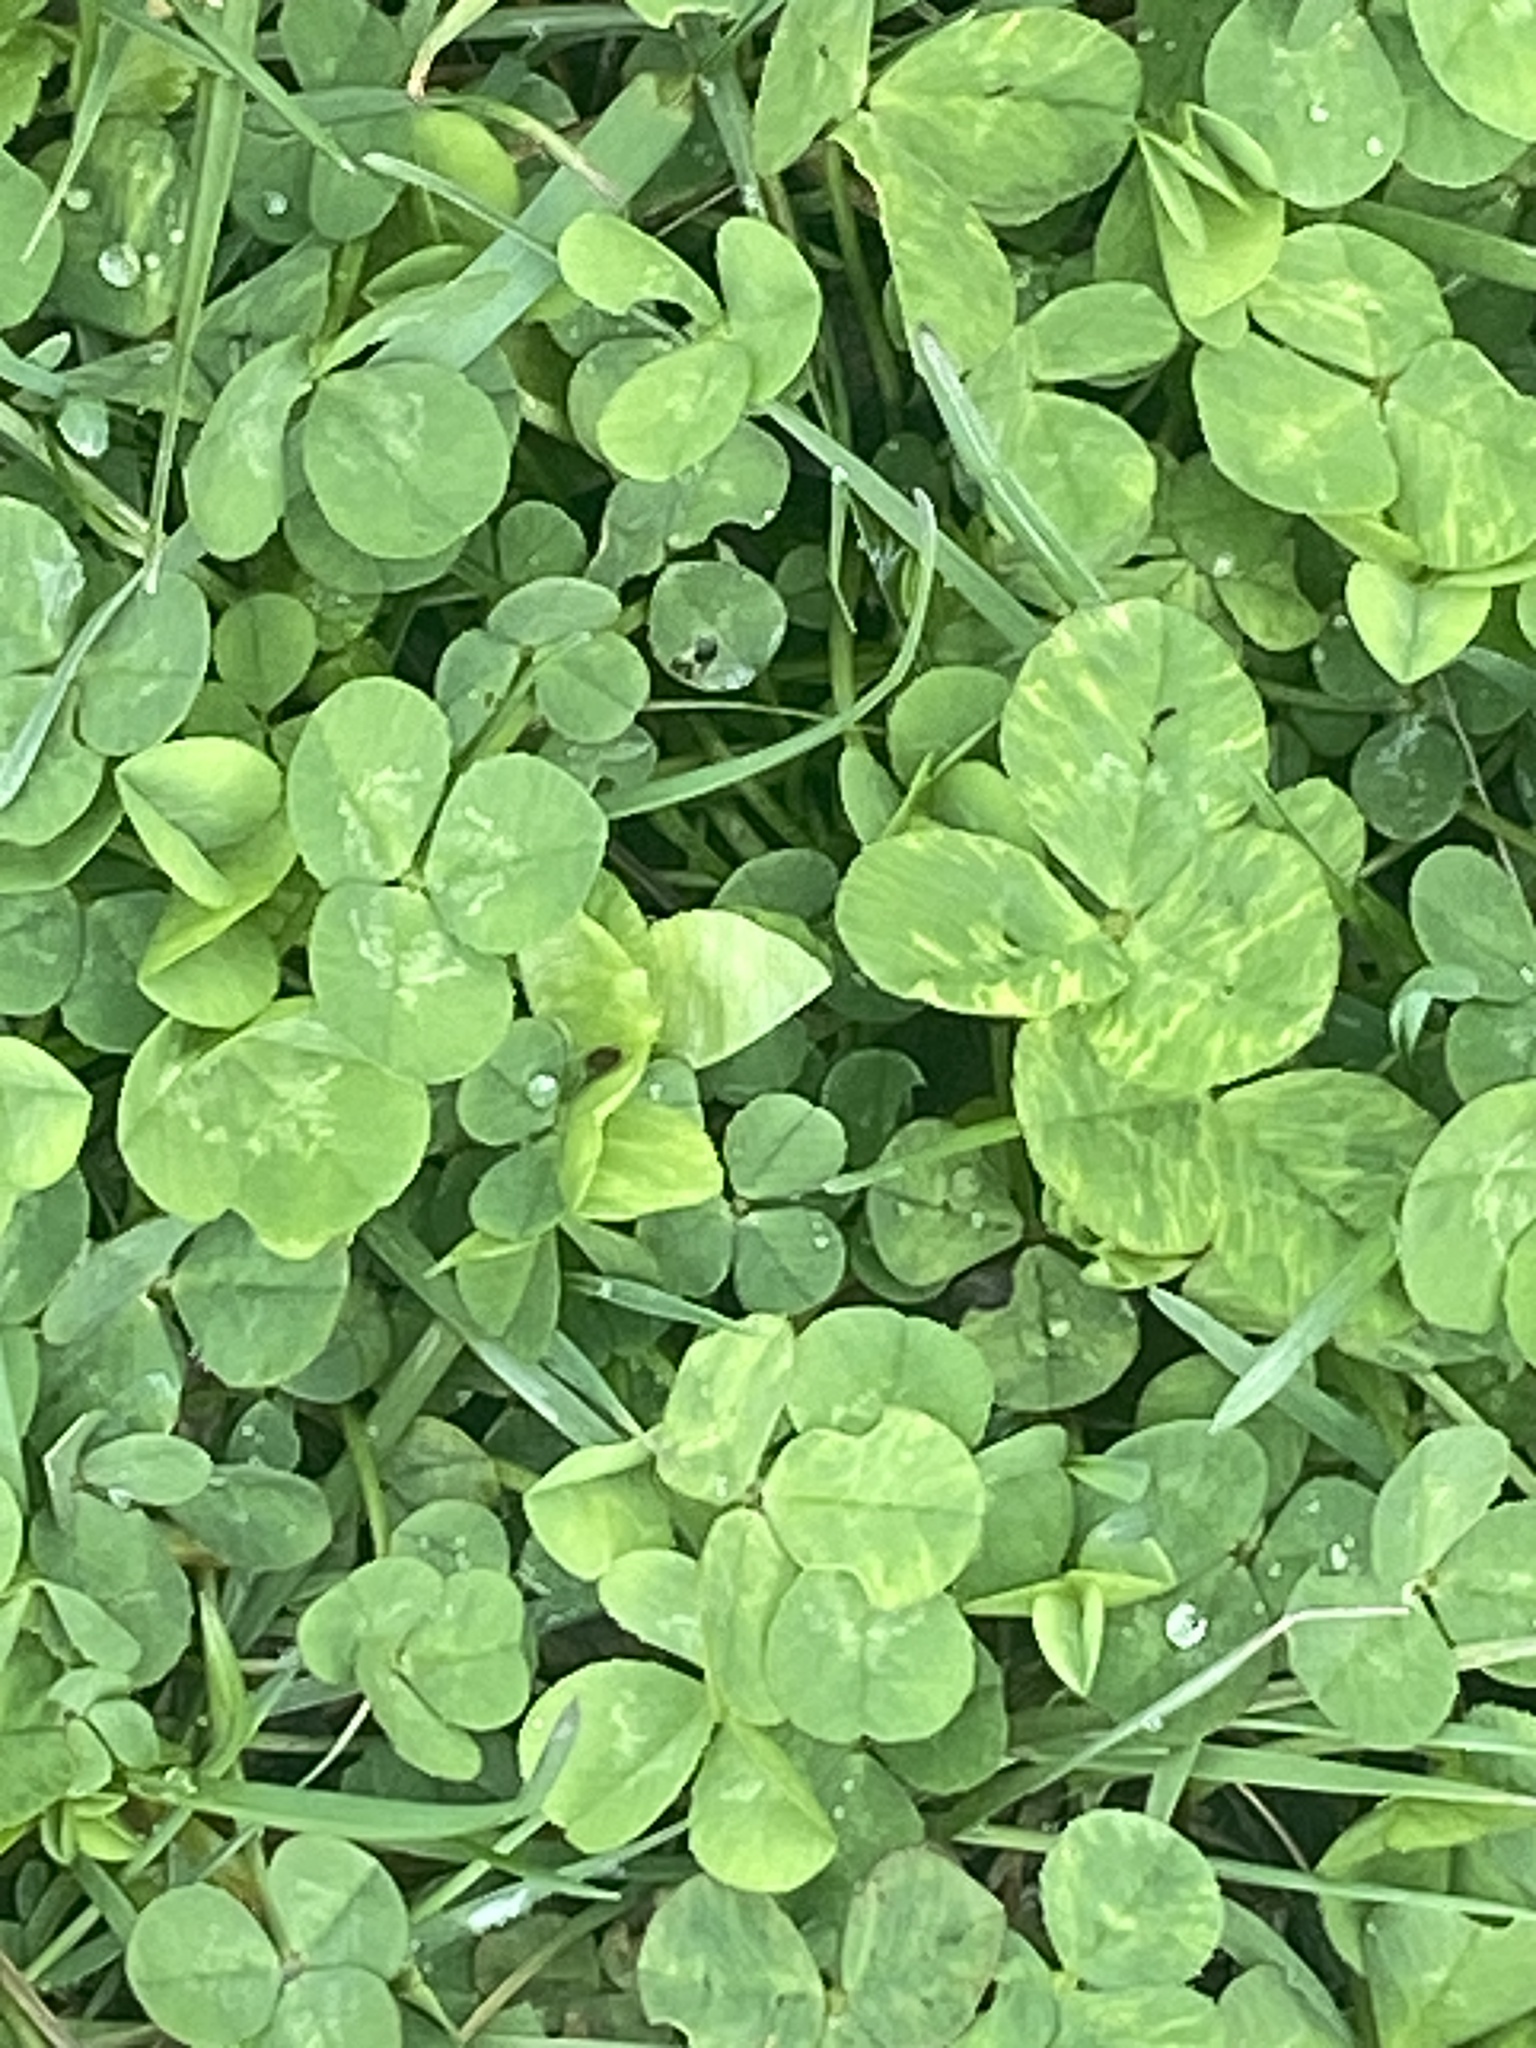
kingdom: Plantae
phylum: Tracheophyta
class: Magnoliopsida
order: Fabales
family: Fabaceae
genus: Trifolium
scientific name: Trifolium repens
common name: White clover
